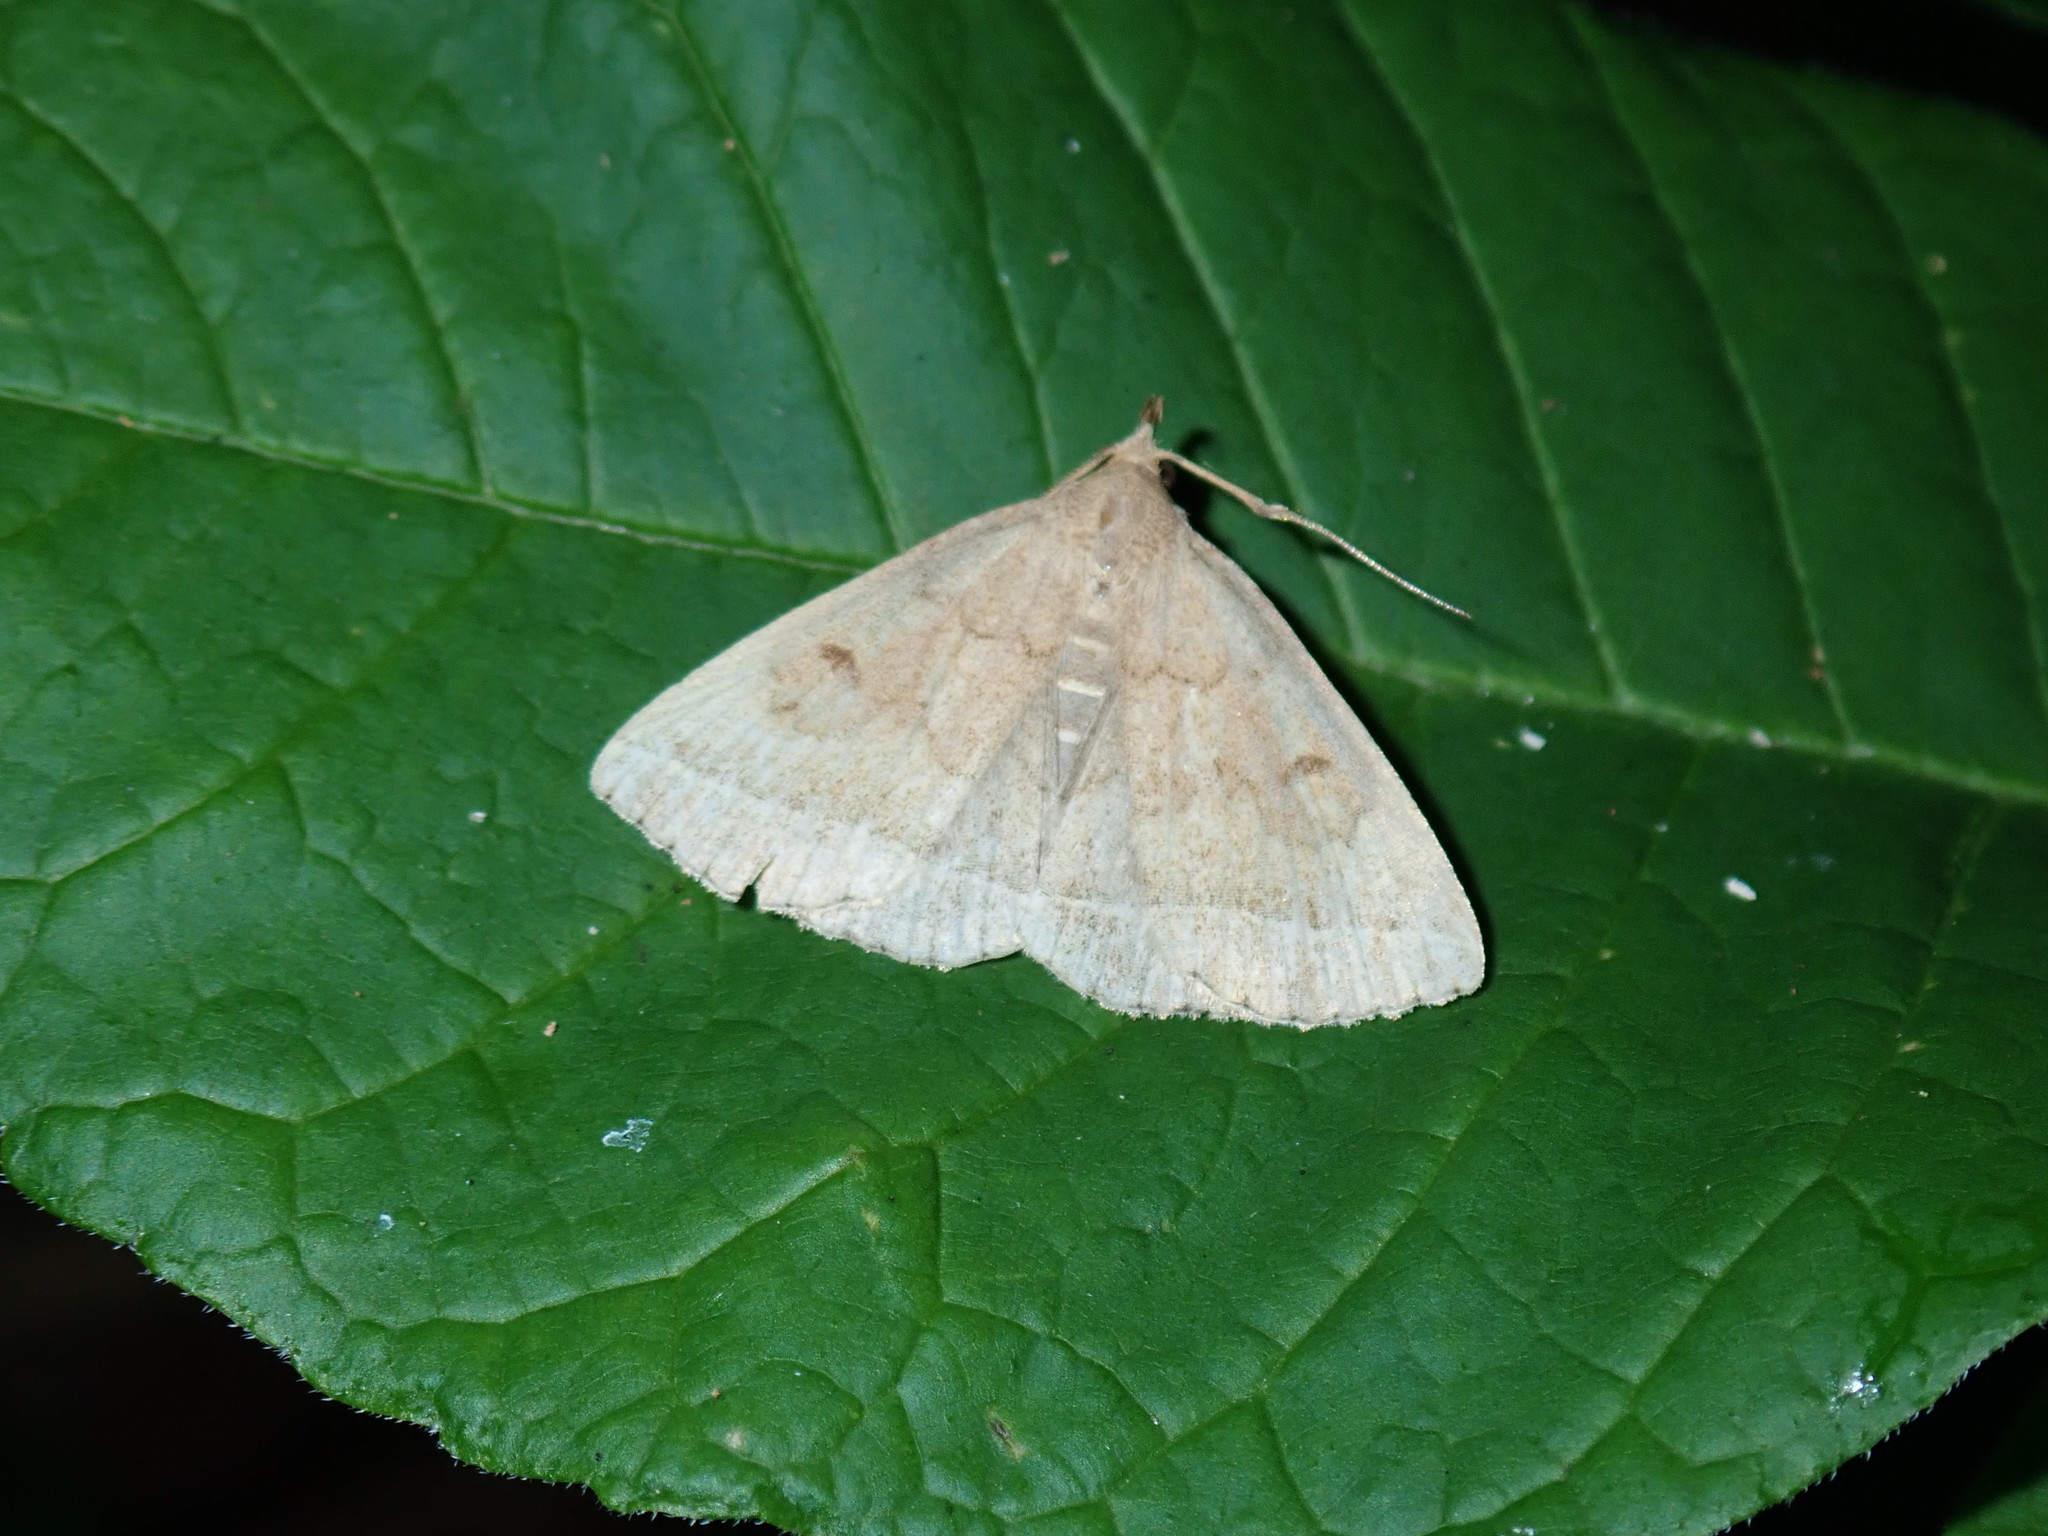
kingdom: Animalia
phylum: Arthropoda
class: Insecta
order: Lepidoptera
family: Erebidae
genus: Zanclognatha
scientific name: Zanclognatha jacchusalis
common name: Yellowish zanclognatha
